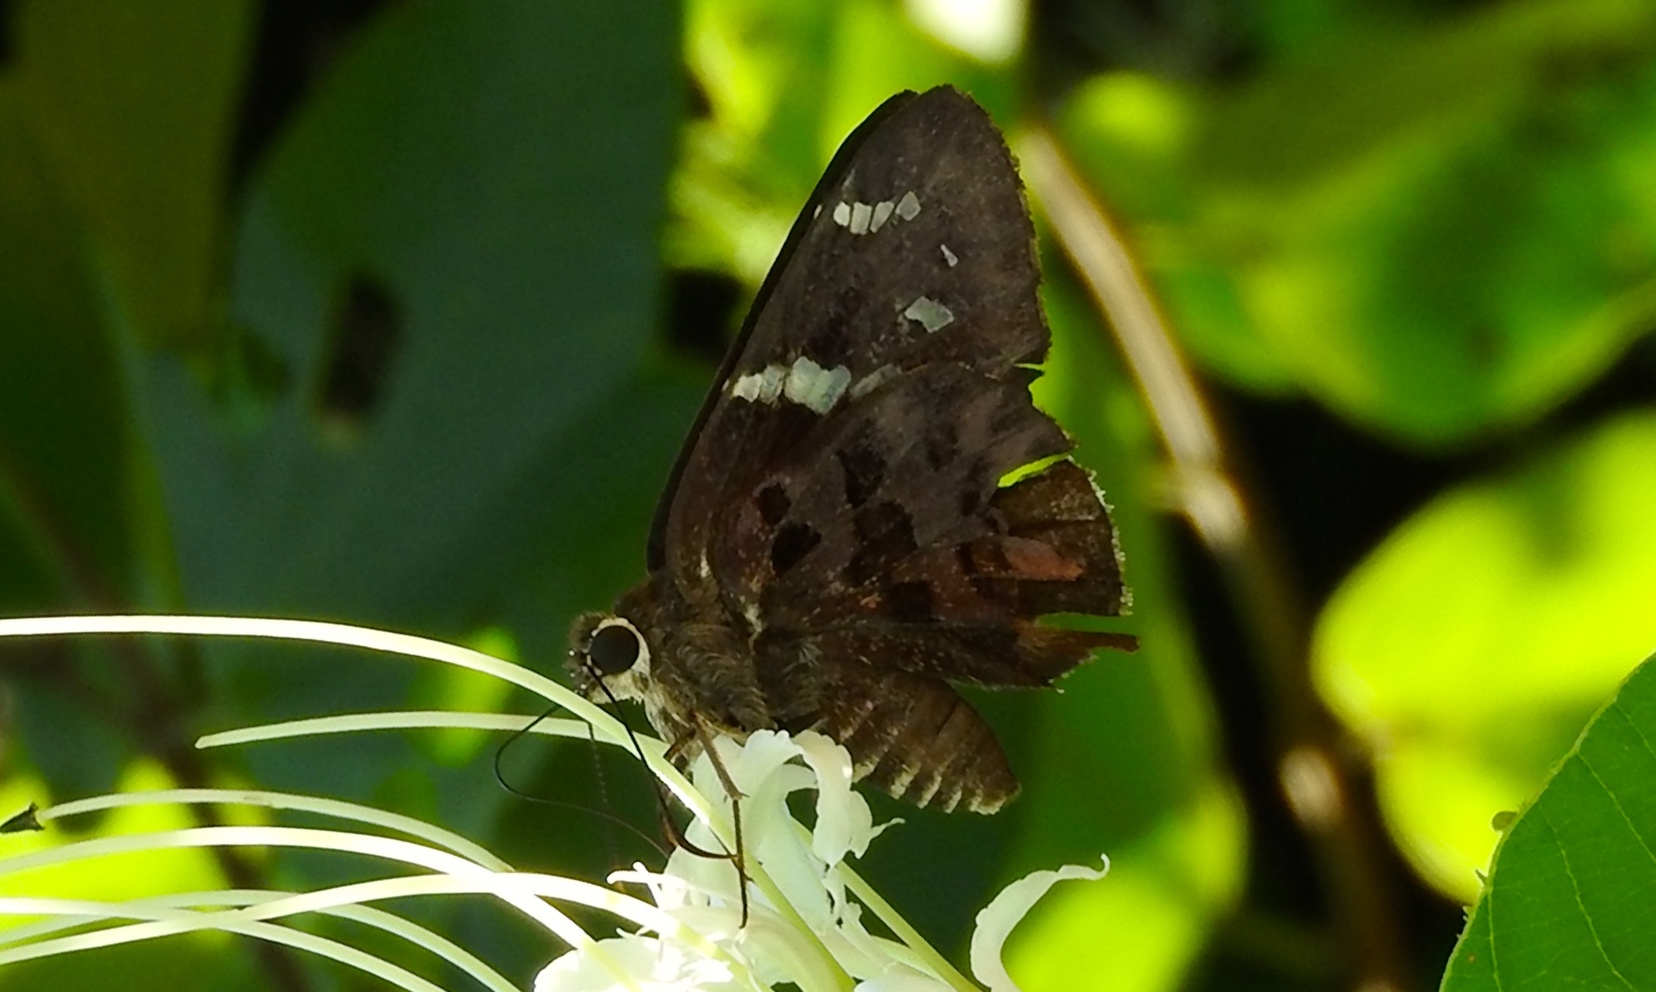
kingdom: Animalia
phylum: Arthropoda
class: Insecta
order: Lepidoptera
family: Hesperiidae
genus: Urbanus
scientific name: Urbanus proteus
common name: Long-tailed skipper
